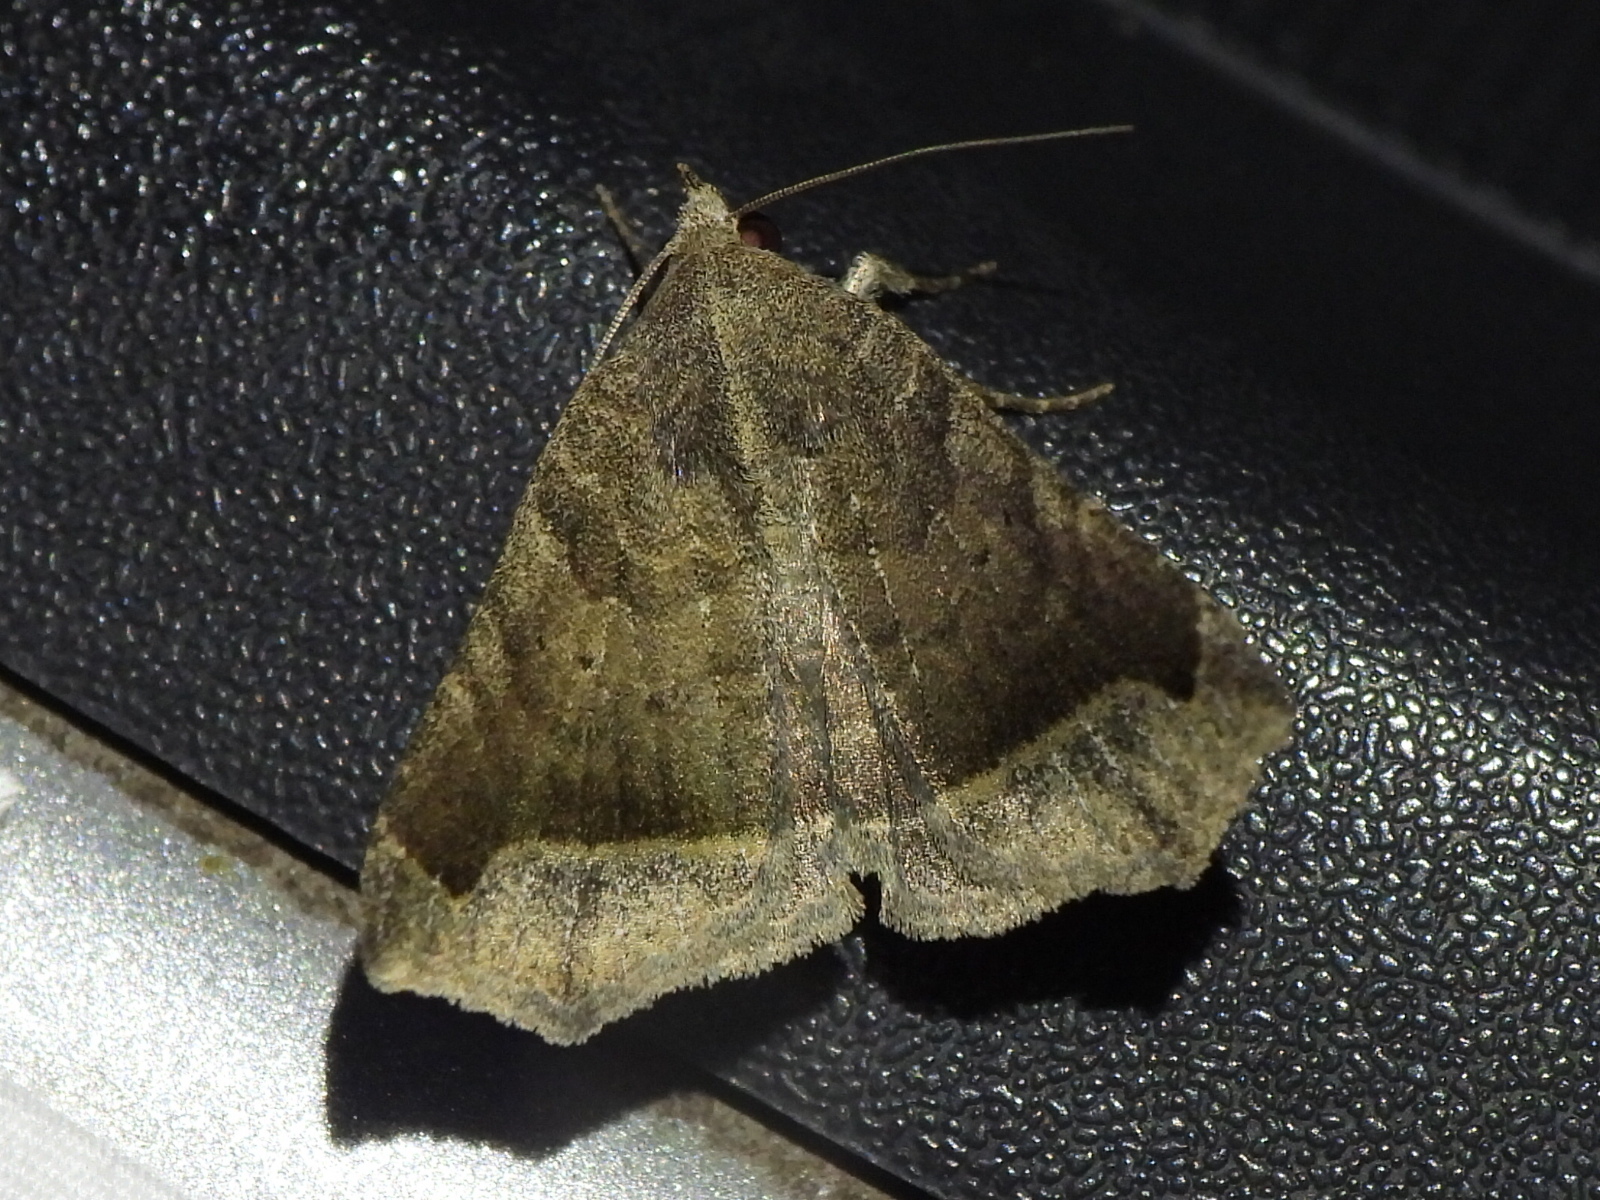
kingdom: Animalia
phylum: Arthropoda
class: Insecta
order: Lepidoptera
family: Erebidae
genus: Bendisodes
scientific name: Bendisodes aeolia
